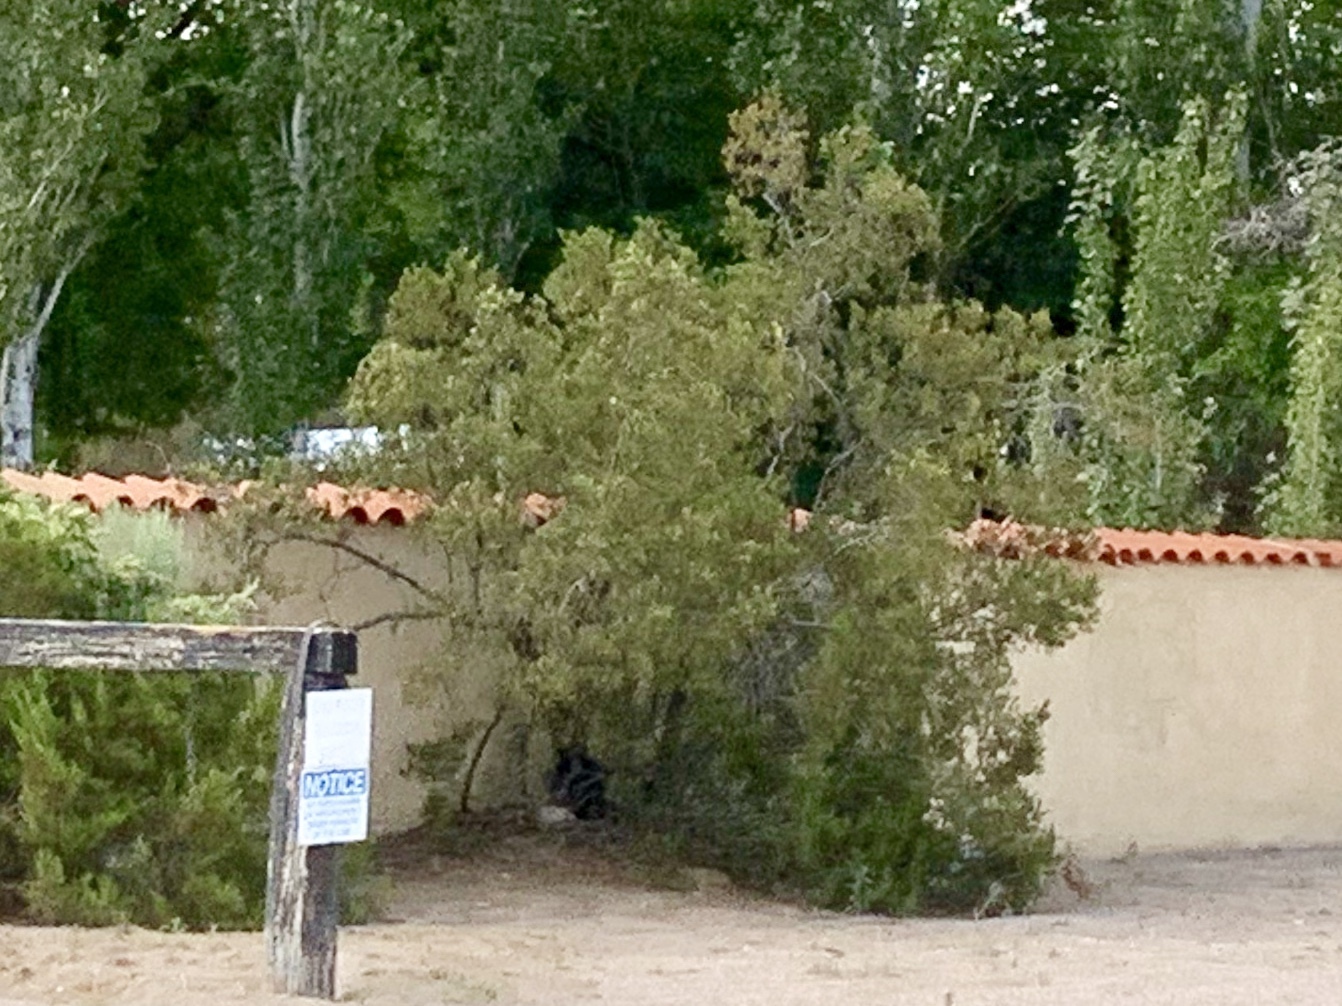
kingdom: Plantae
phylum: Tracheophyta
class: Magnoliopsida
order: Zygophyllales
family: Zygophyllaceae
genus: Larrea
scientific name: Larrea tridentata
